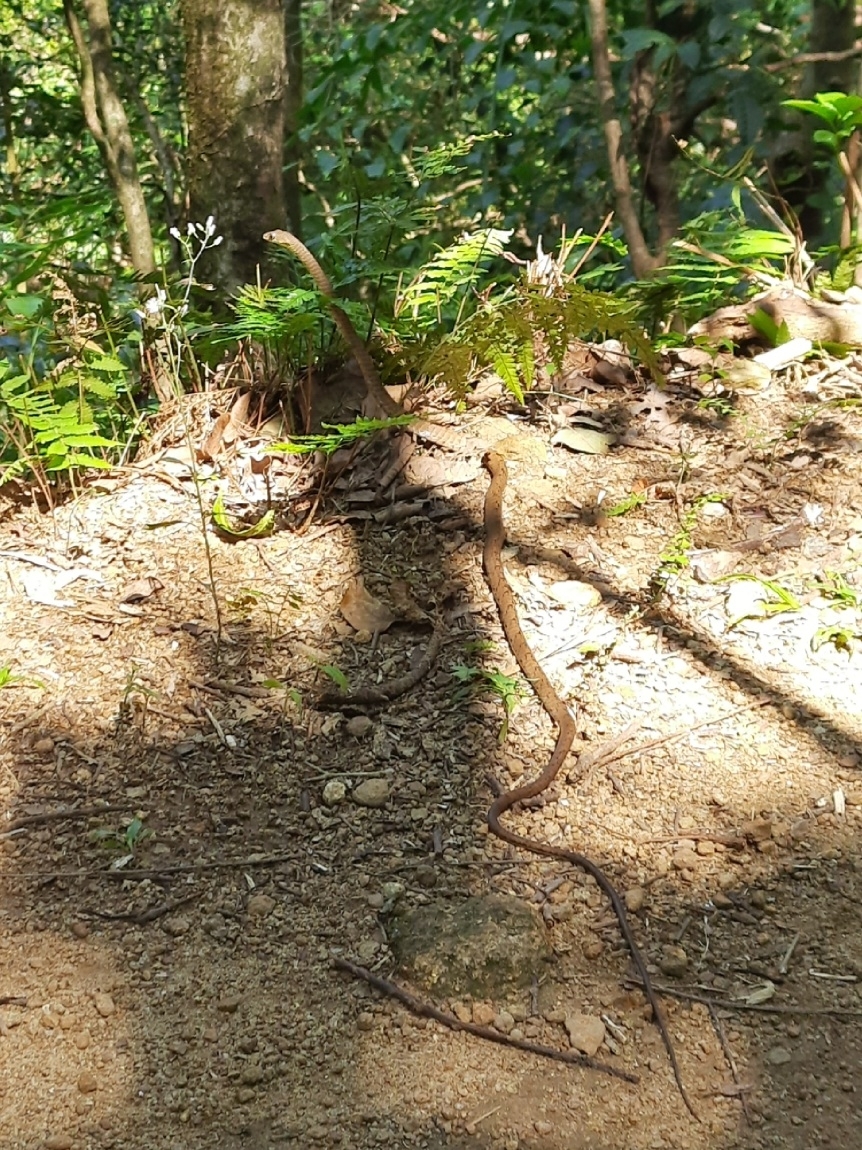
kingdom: Animalia
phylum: Chordata
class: Squamata
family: Colubridae
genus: Dendrelaphis
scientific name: Dendrelaphis grandoculis
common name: Southern bronzeback
